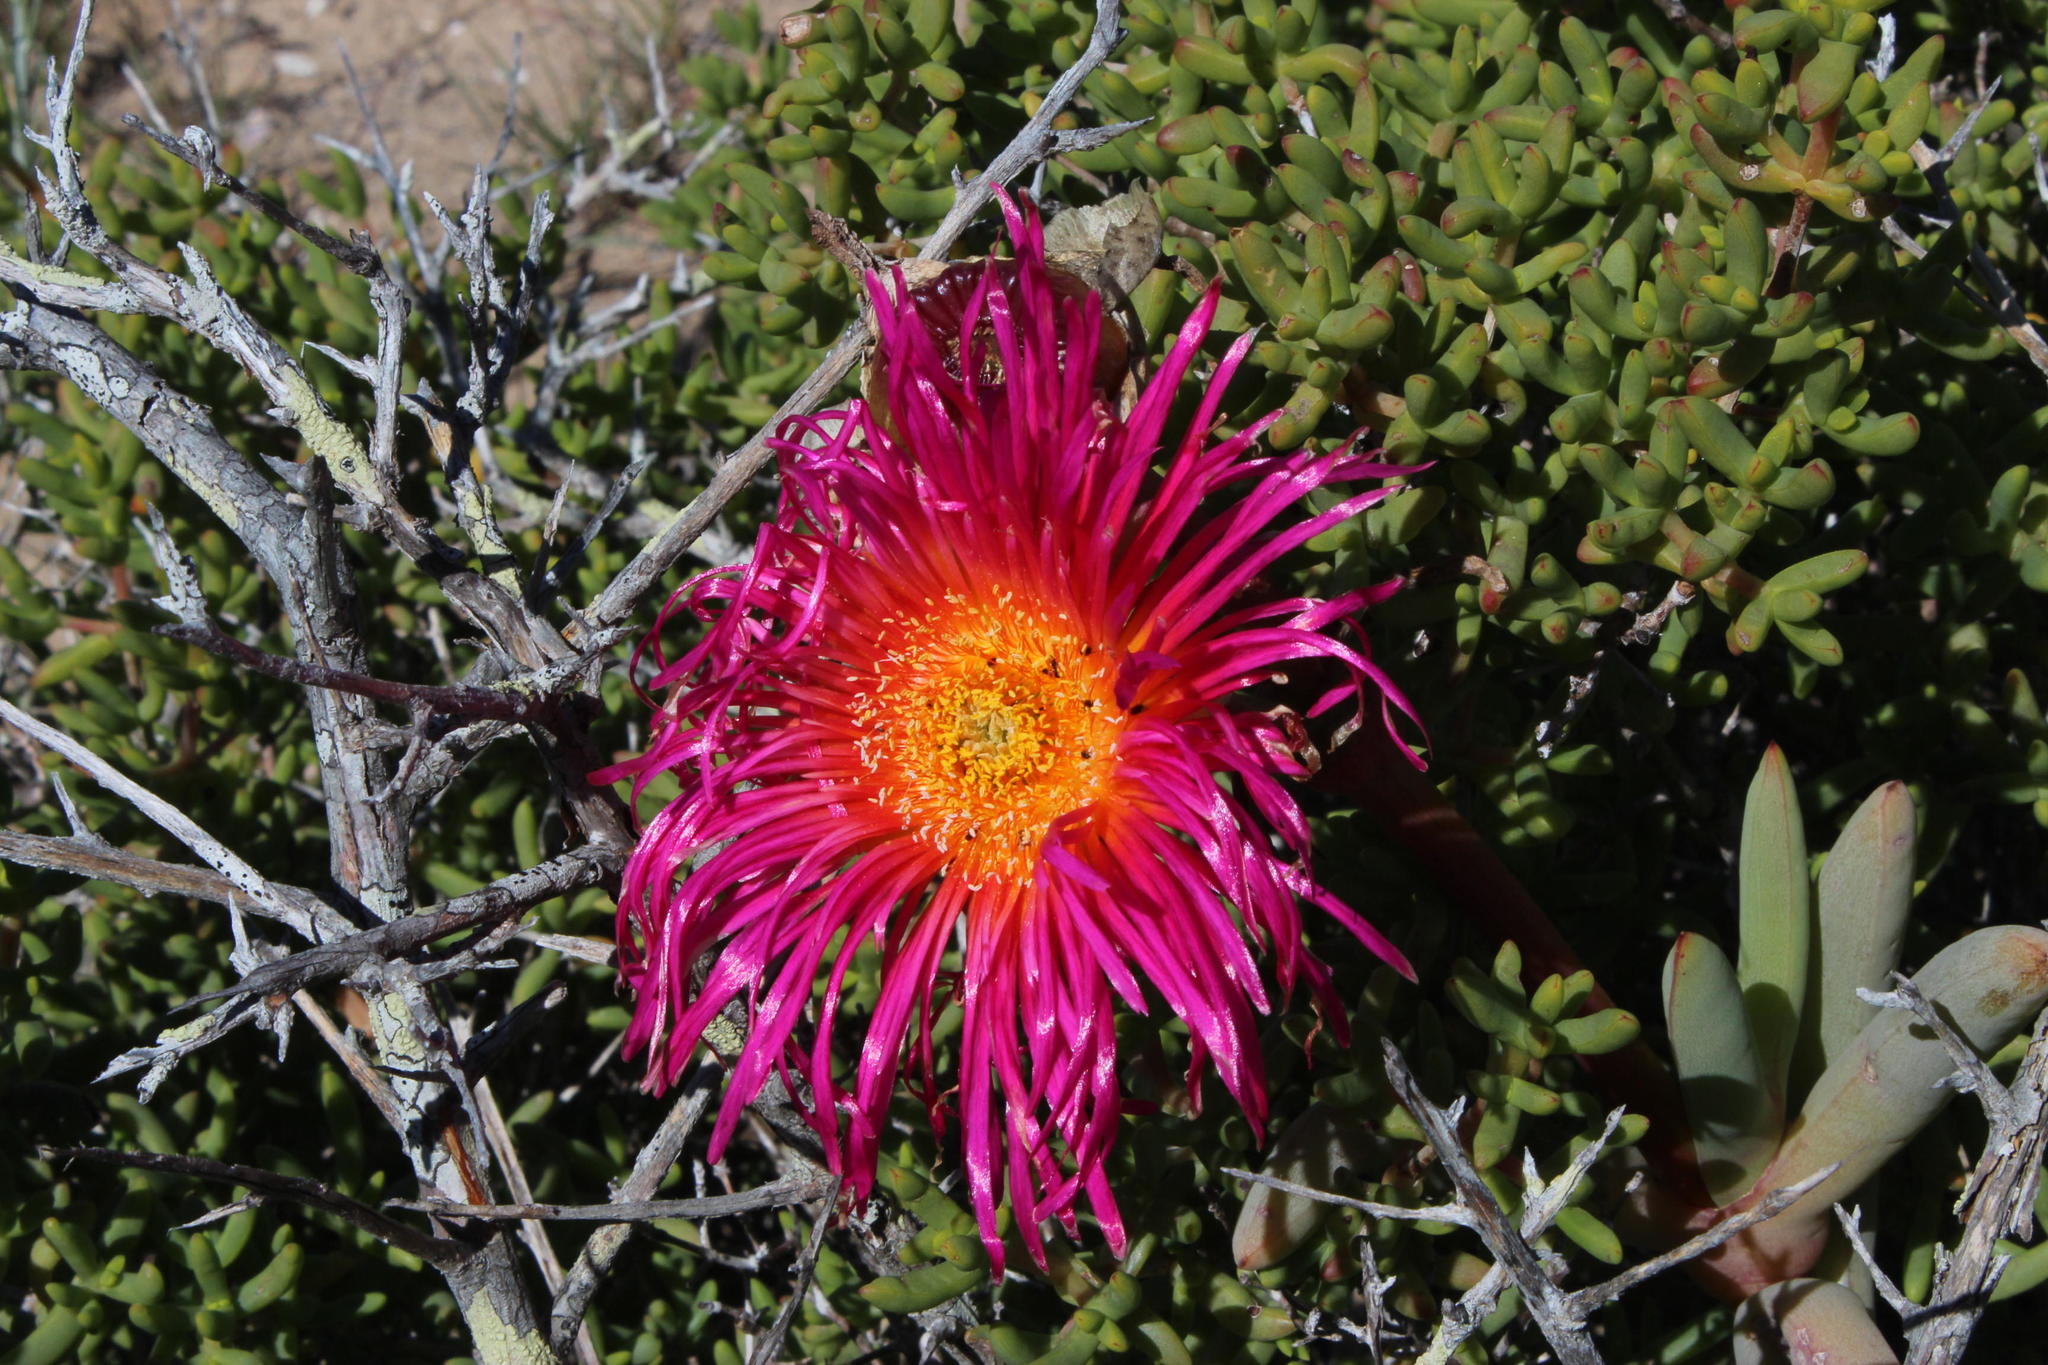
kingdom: Plantae
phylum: Tracheophyta
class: Magnoliopsida
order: Caryophyllales
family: Aizoaceae
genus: Jordaaniella
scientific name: Jordaaniella spongiosa
